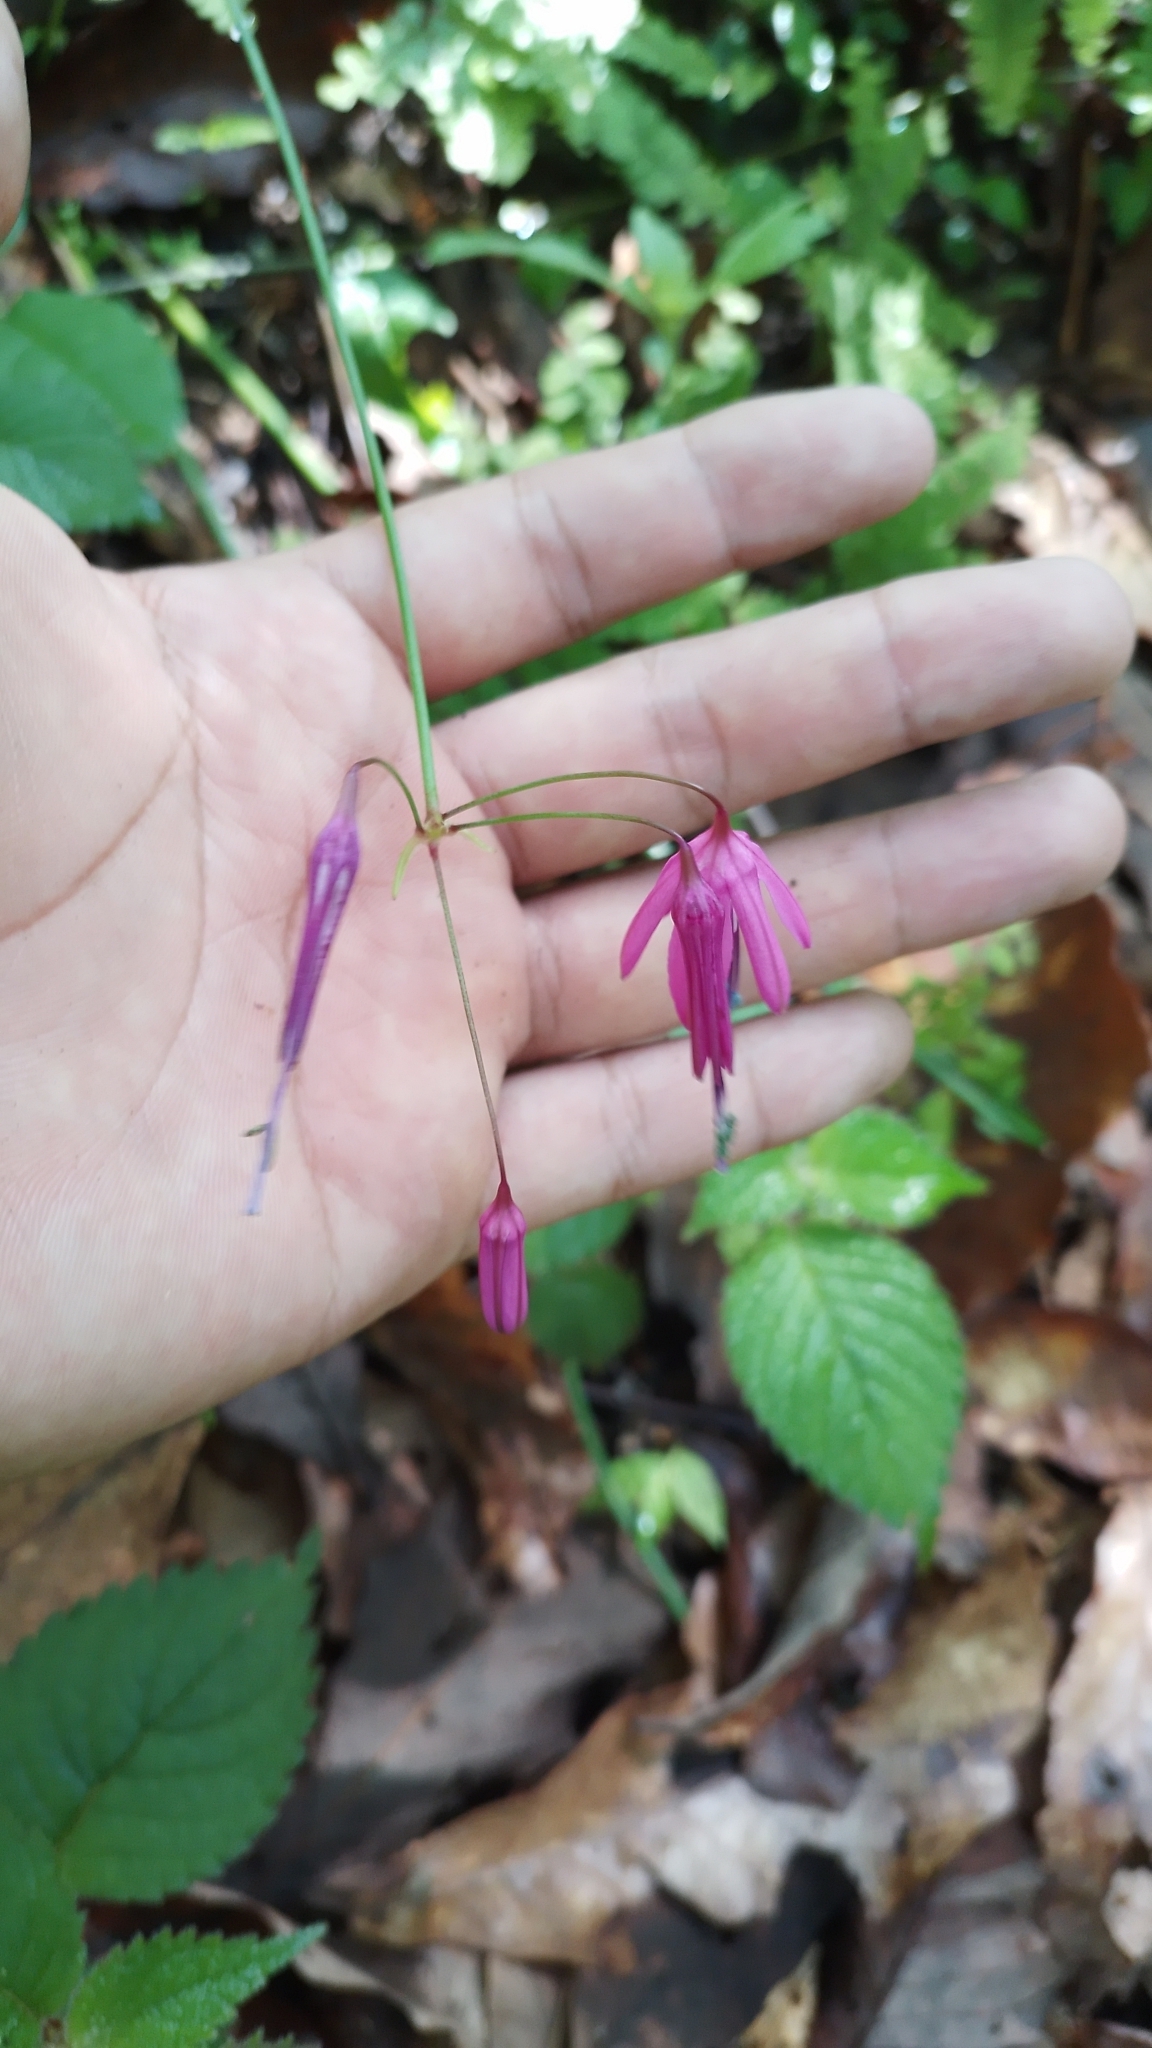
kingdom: Plantae
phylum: Tracheophyta
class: Liliopsida
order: Asparagales
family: Amaryllidaceae
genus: Bessera
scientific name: Bessera elegantissima
